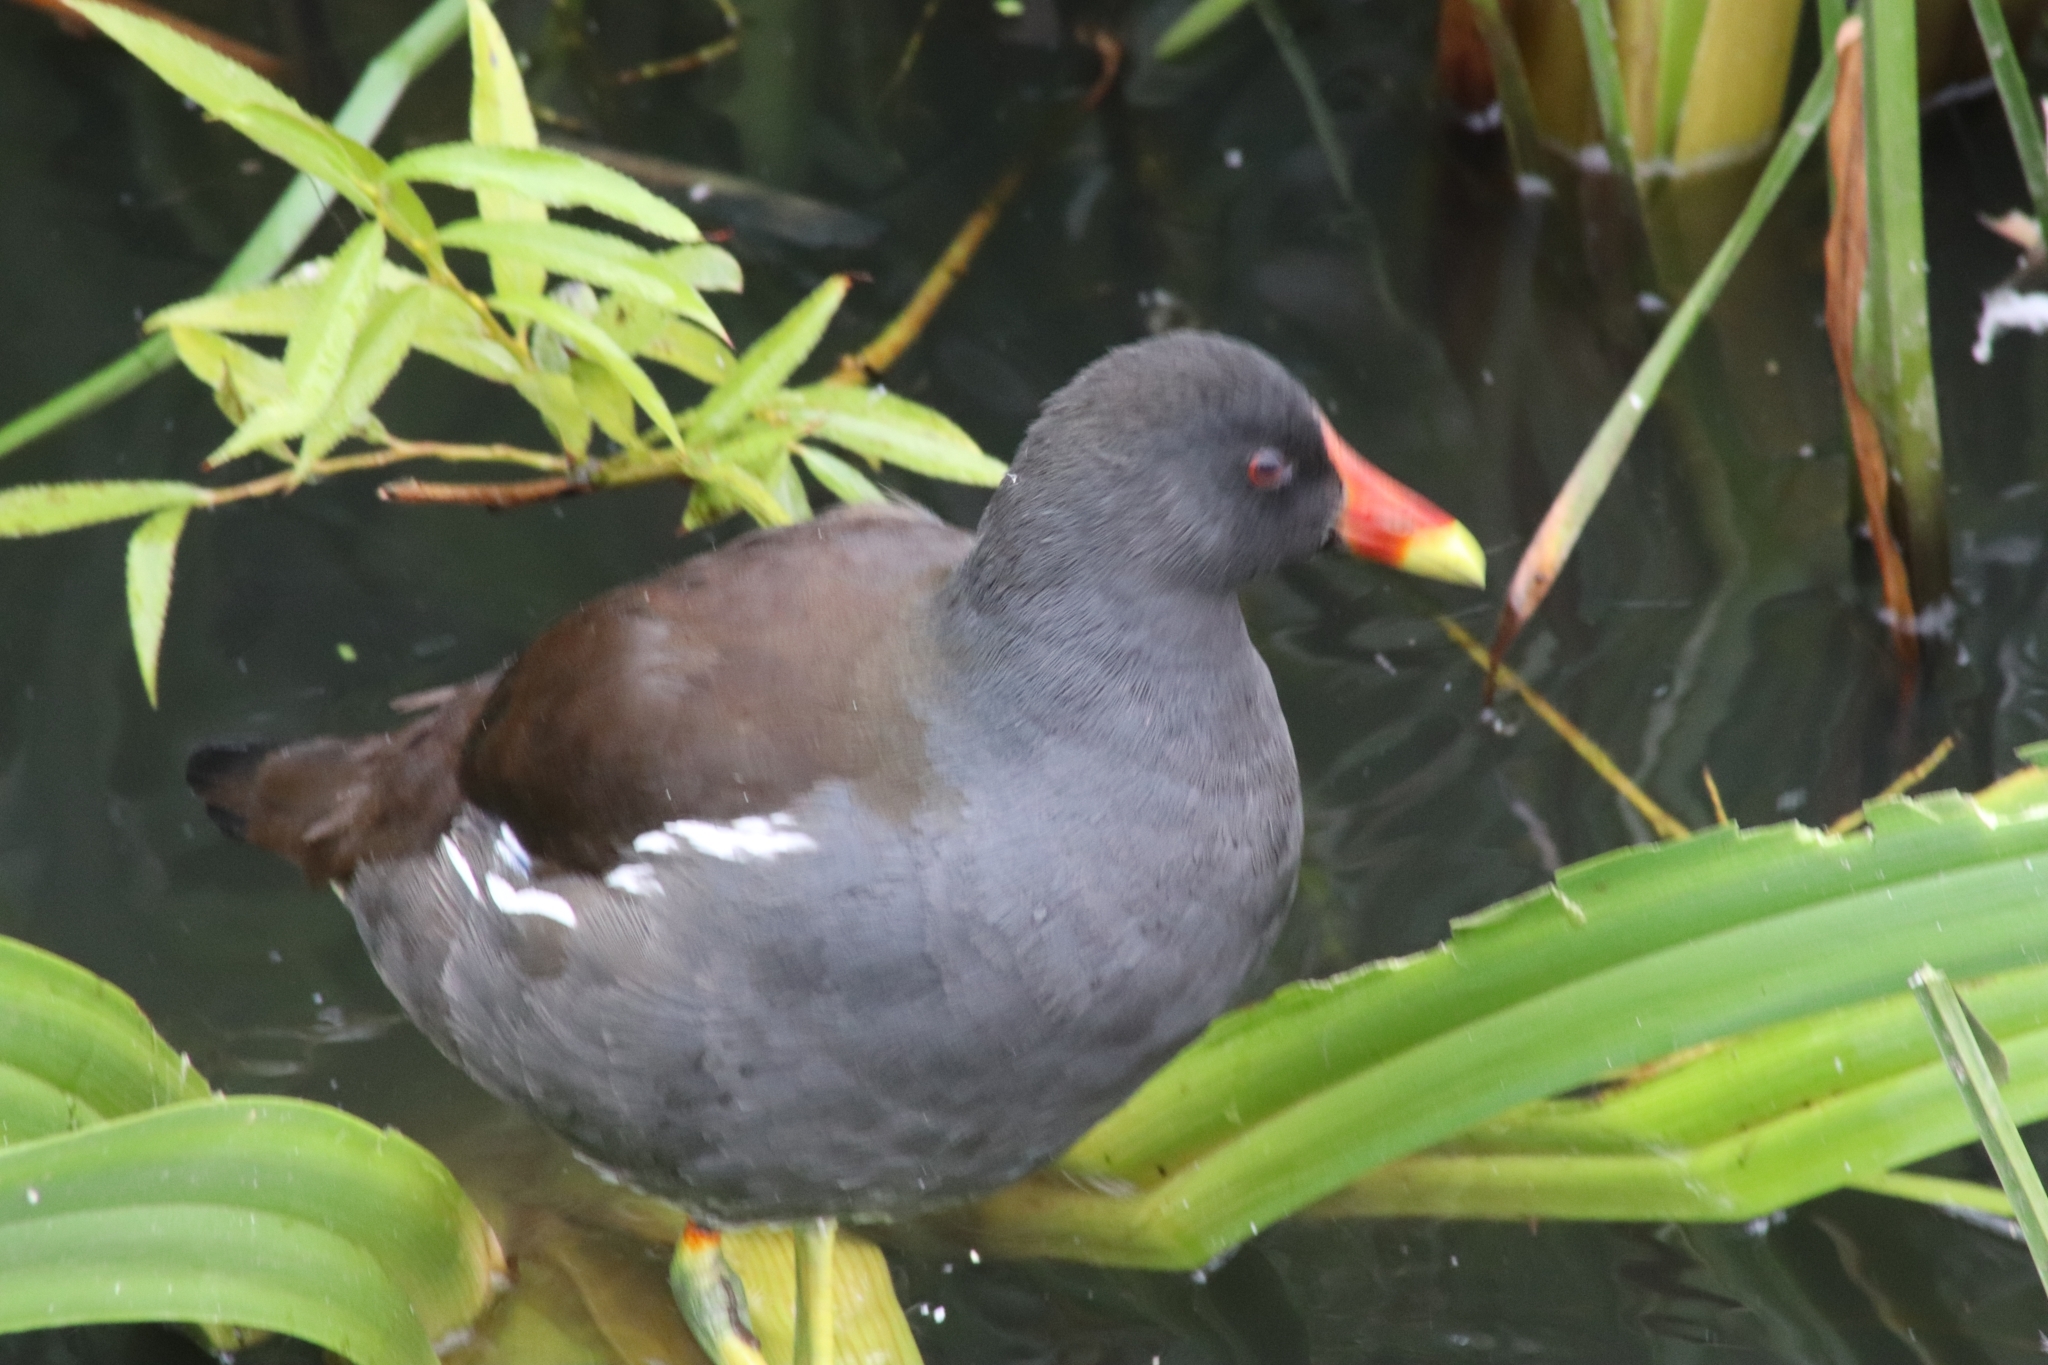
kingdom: Animalia
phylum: Chordata
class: Aves
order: Gruiformes
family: Rallidae
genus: Gallinula
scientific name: Gallinula chloropus
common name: Common moorhen
